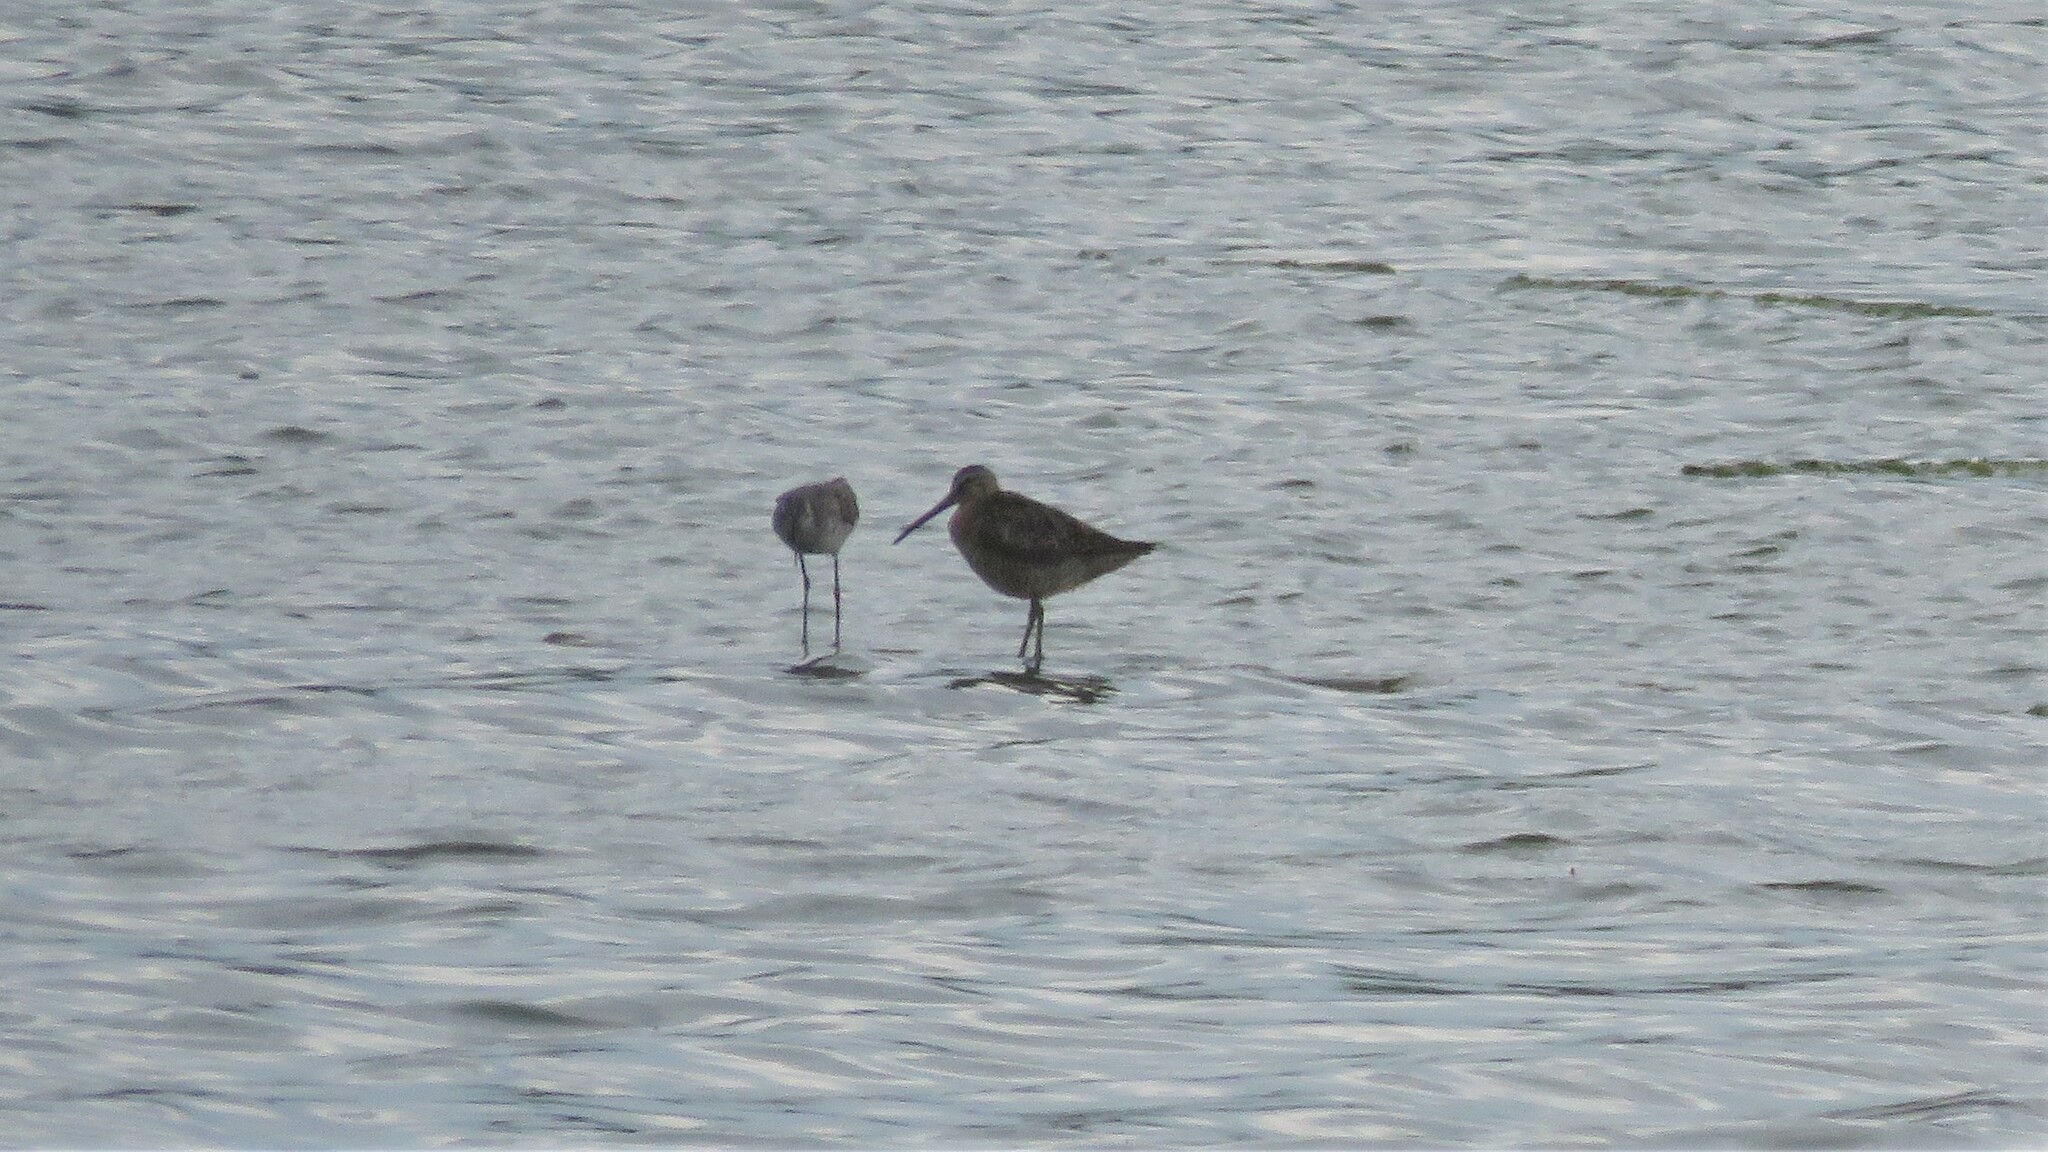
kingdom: Animalia
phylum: Chordata
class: Aves
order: Charadriiformes
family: Scolopacidae
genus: Limnodromus
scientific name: Limnodromus griseus
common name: Short-billed dowitcher
